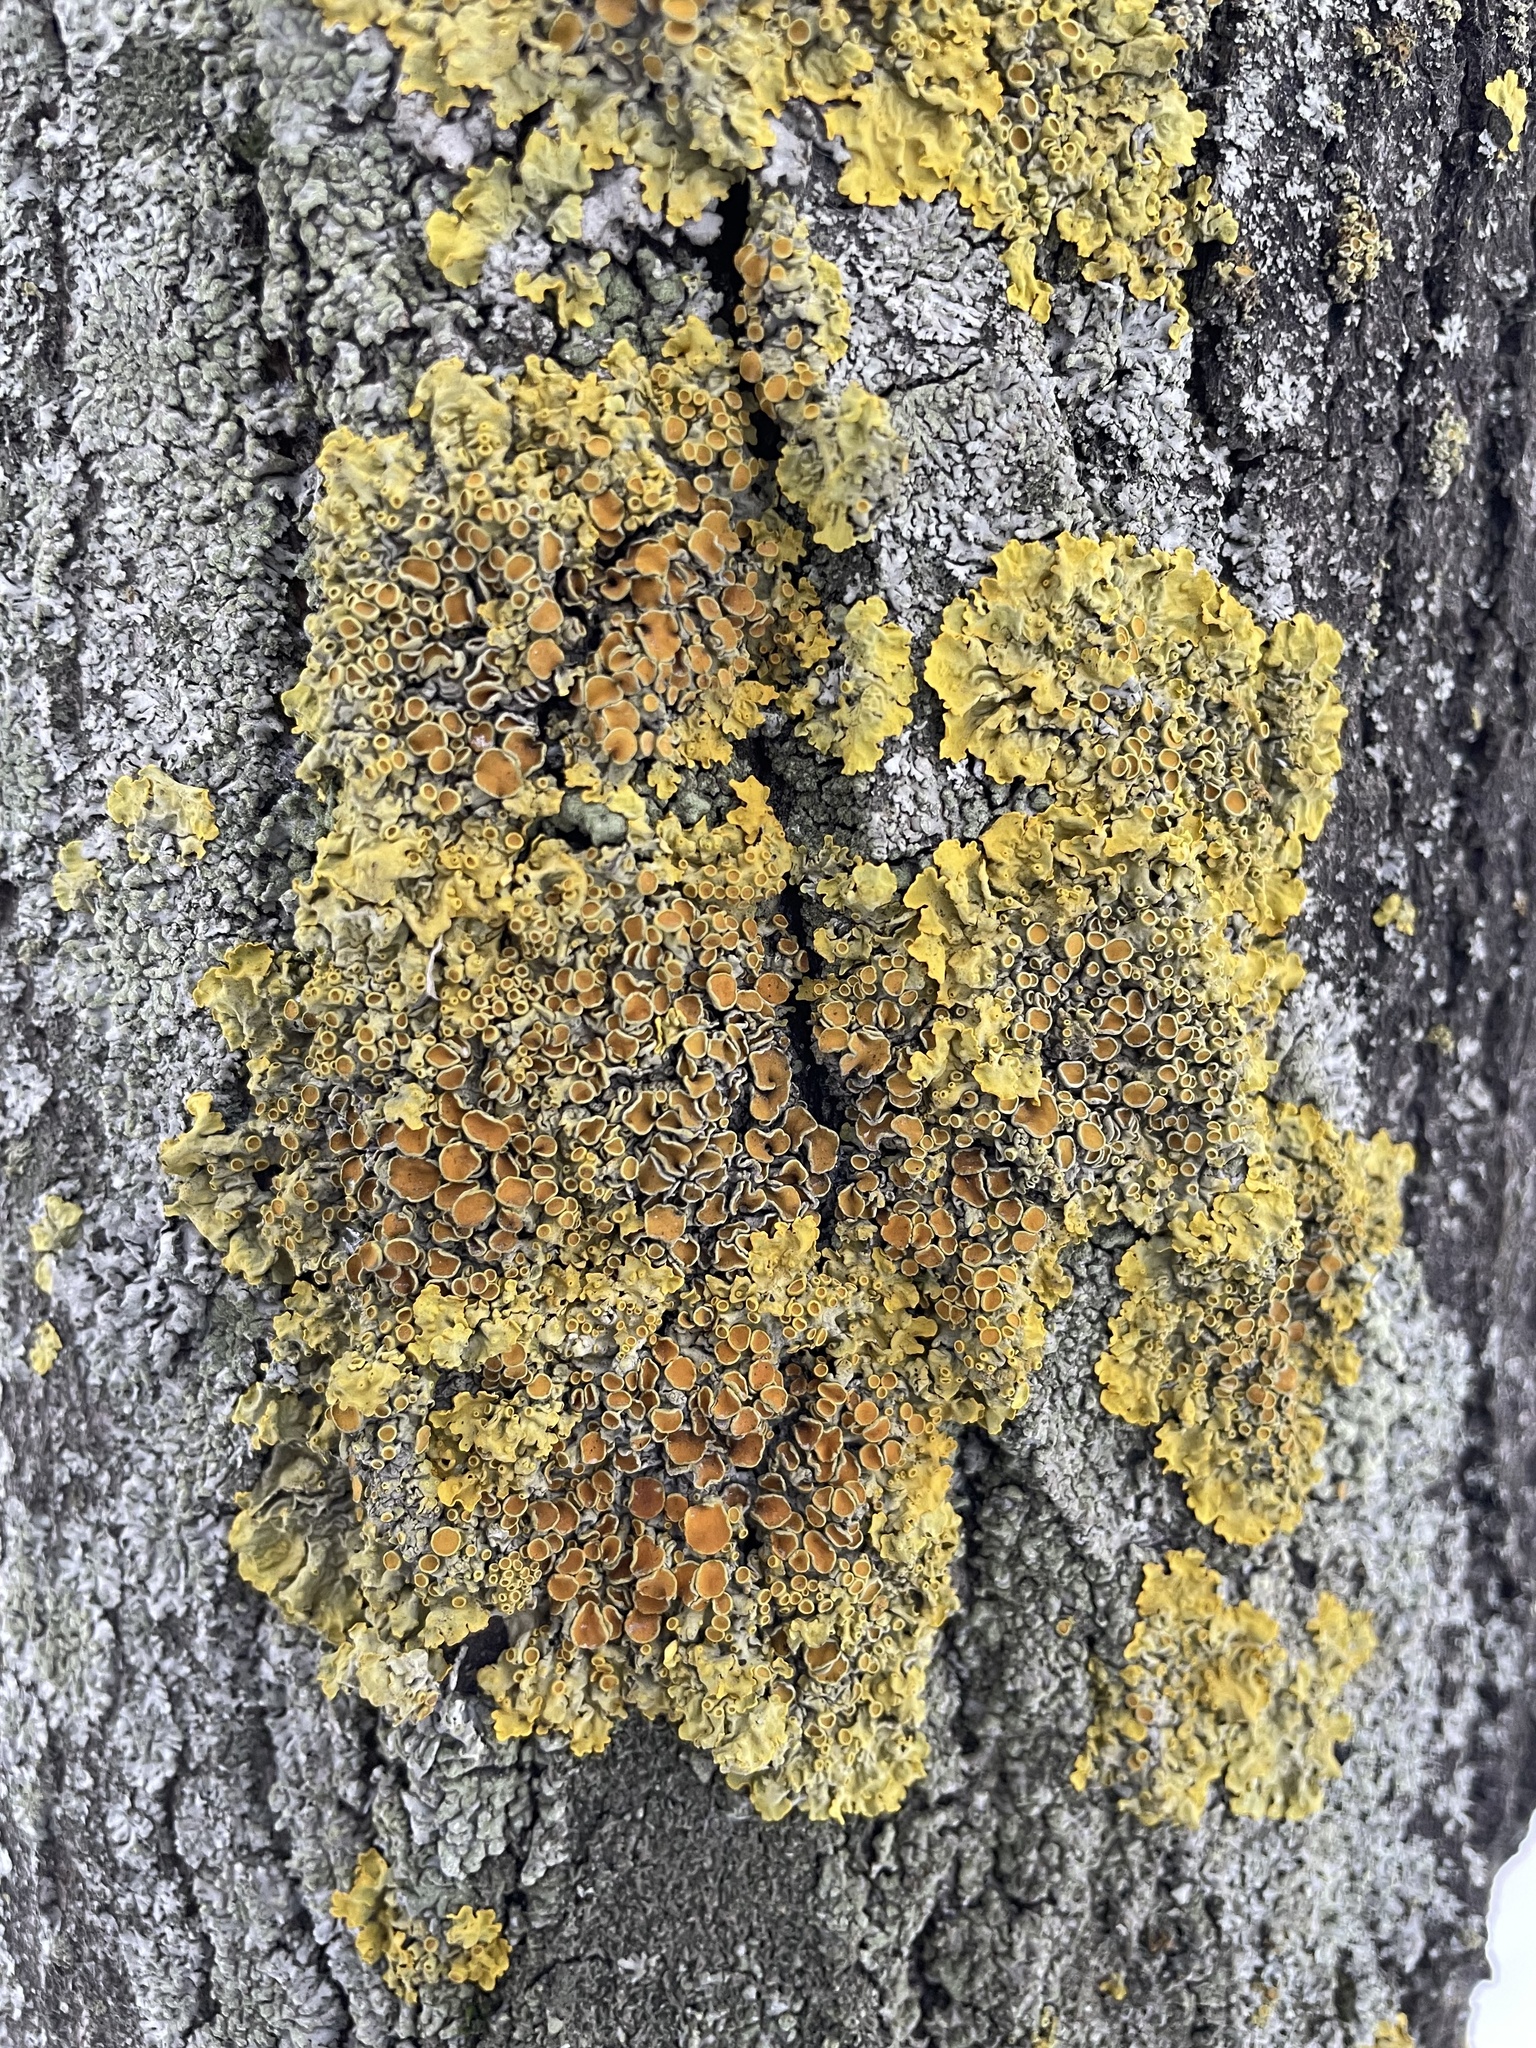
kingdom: Fungi
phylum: Ascomycota
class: Lecanoromycetes
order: Teloschistales
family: Teloschistaceae
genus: Xanthoria
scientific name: Xanthoria parietina
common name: Common orange lichen
